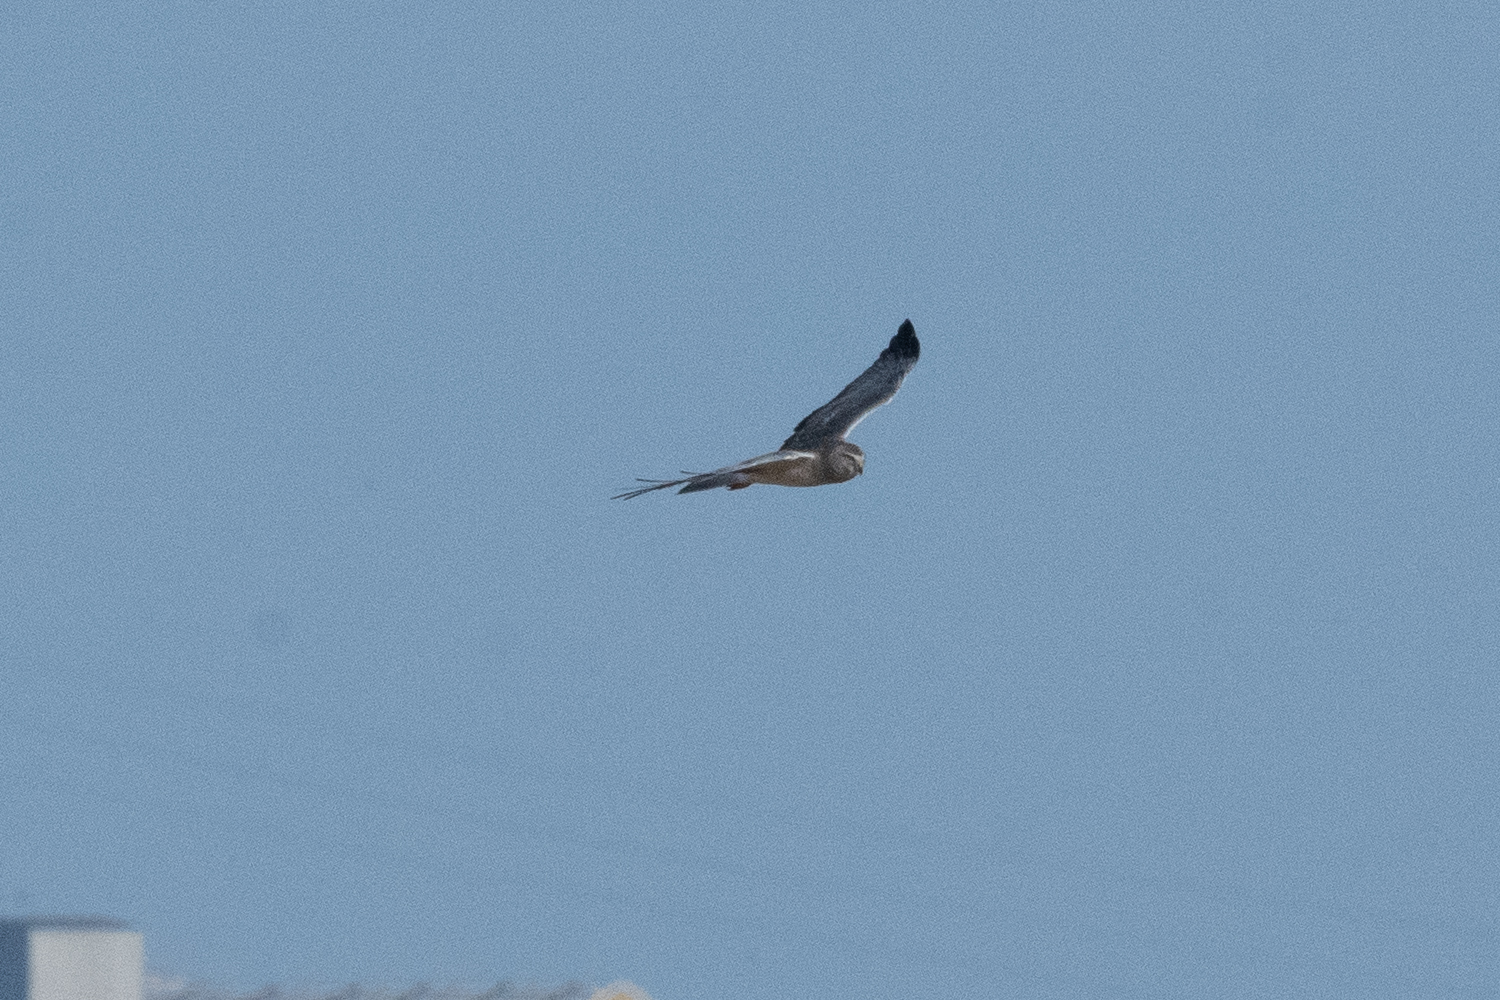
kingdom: Animalia
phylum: Chordata
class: Aves
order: Accipitriformes
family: Accipitridae
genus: Circus
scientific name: Circus cyaneus
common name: Hen harrier
